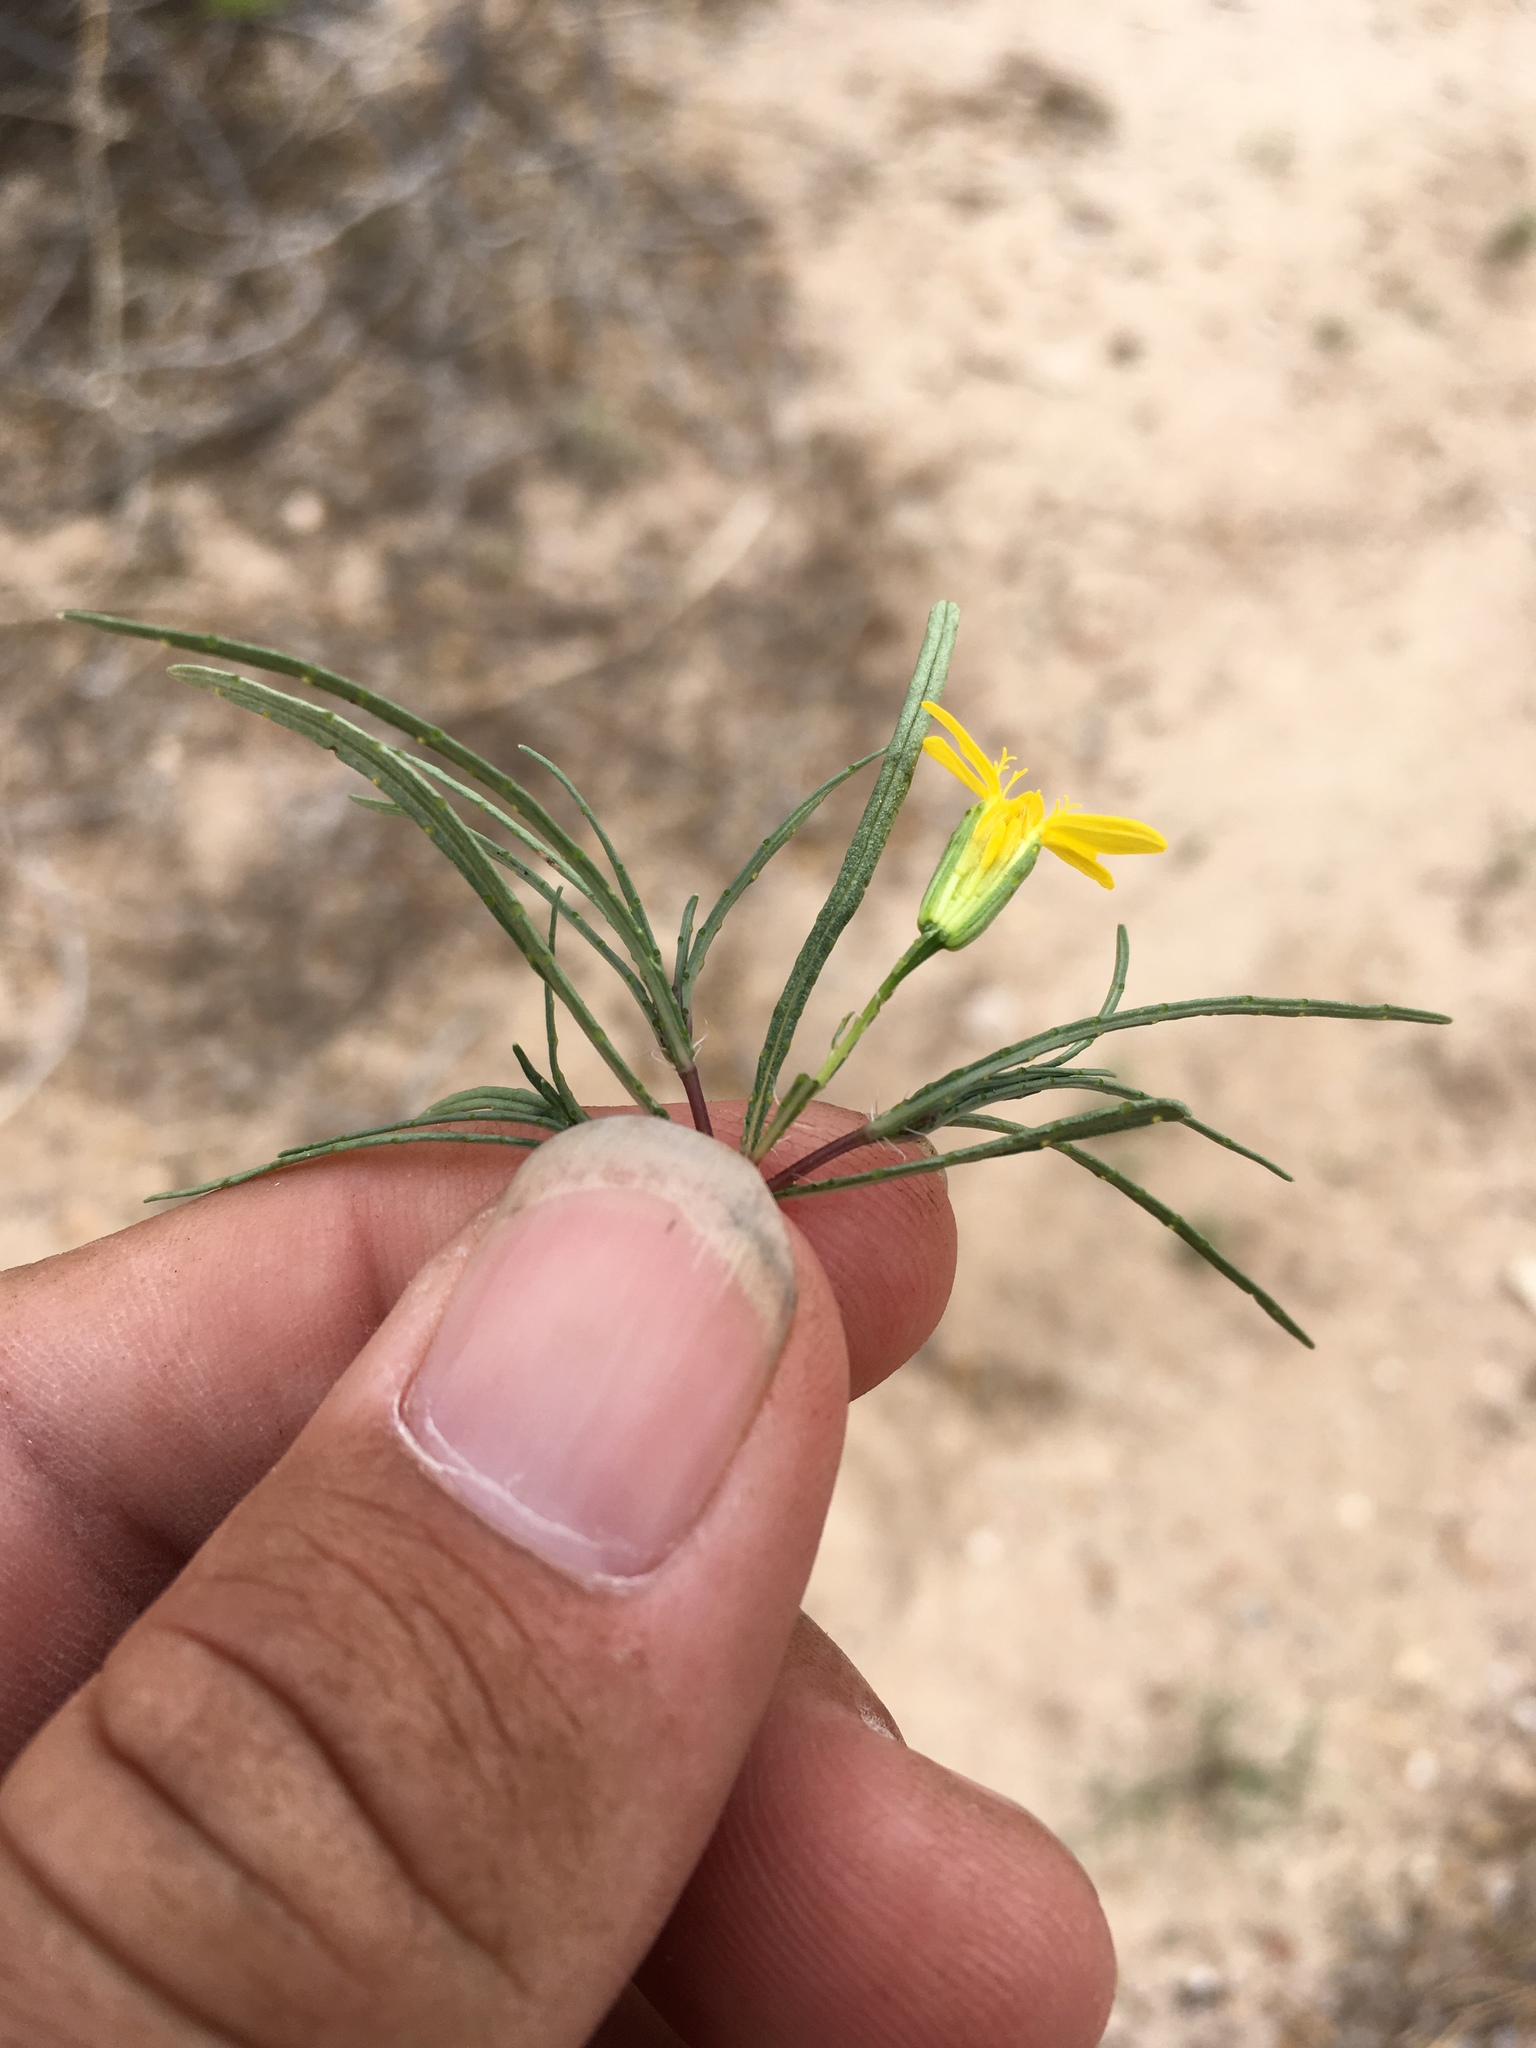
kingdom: Plantae
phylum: Tracheophyta
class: Magnoliopsida
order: Asterales
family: Asteraceae
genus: Pectis
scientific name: Pectis papposa
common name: Many-bristle chinchweed
